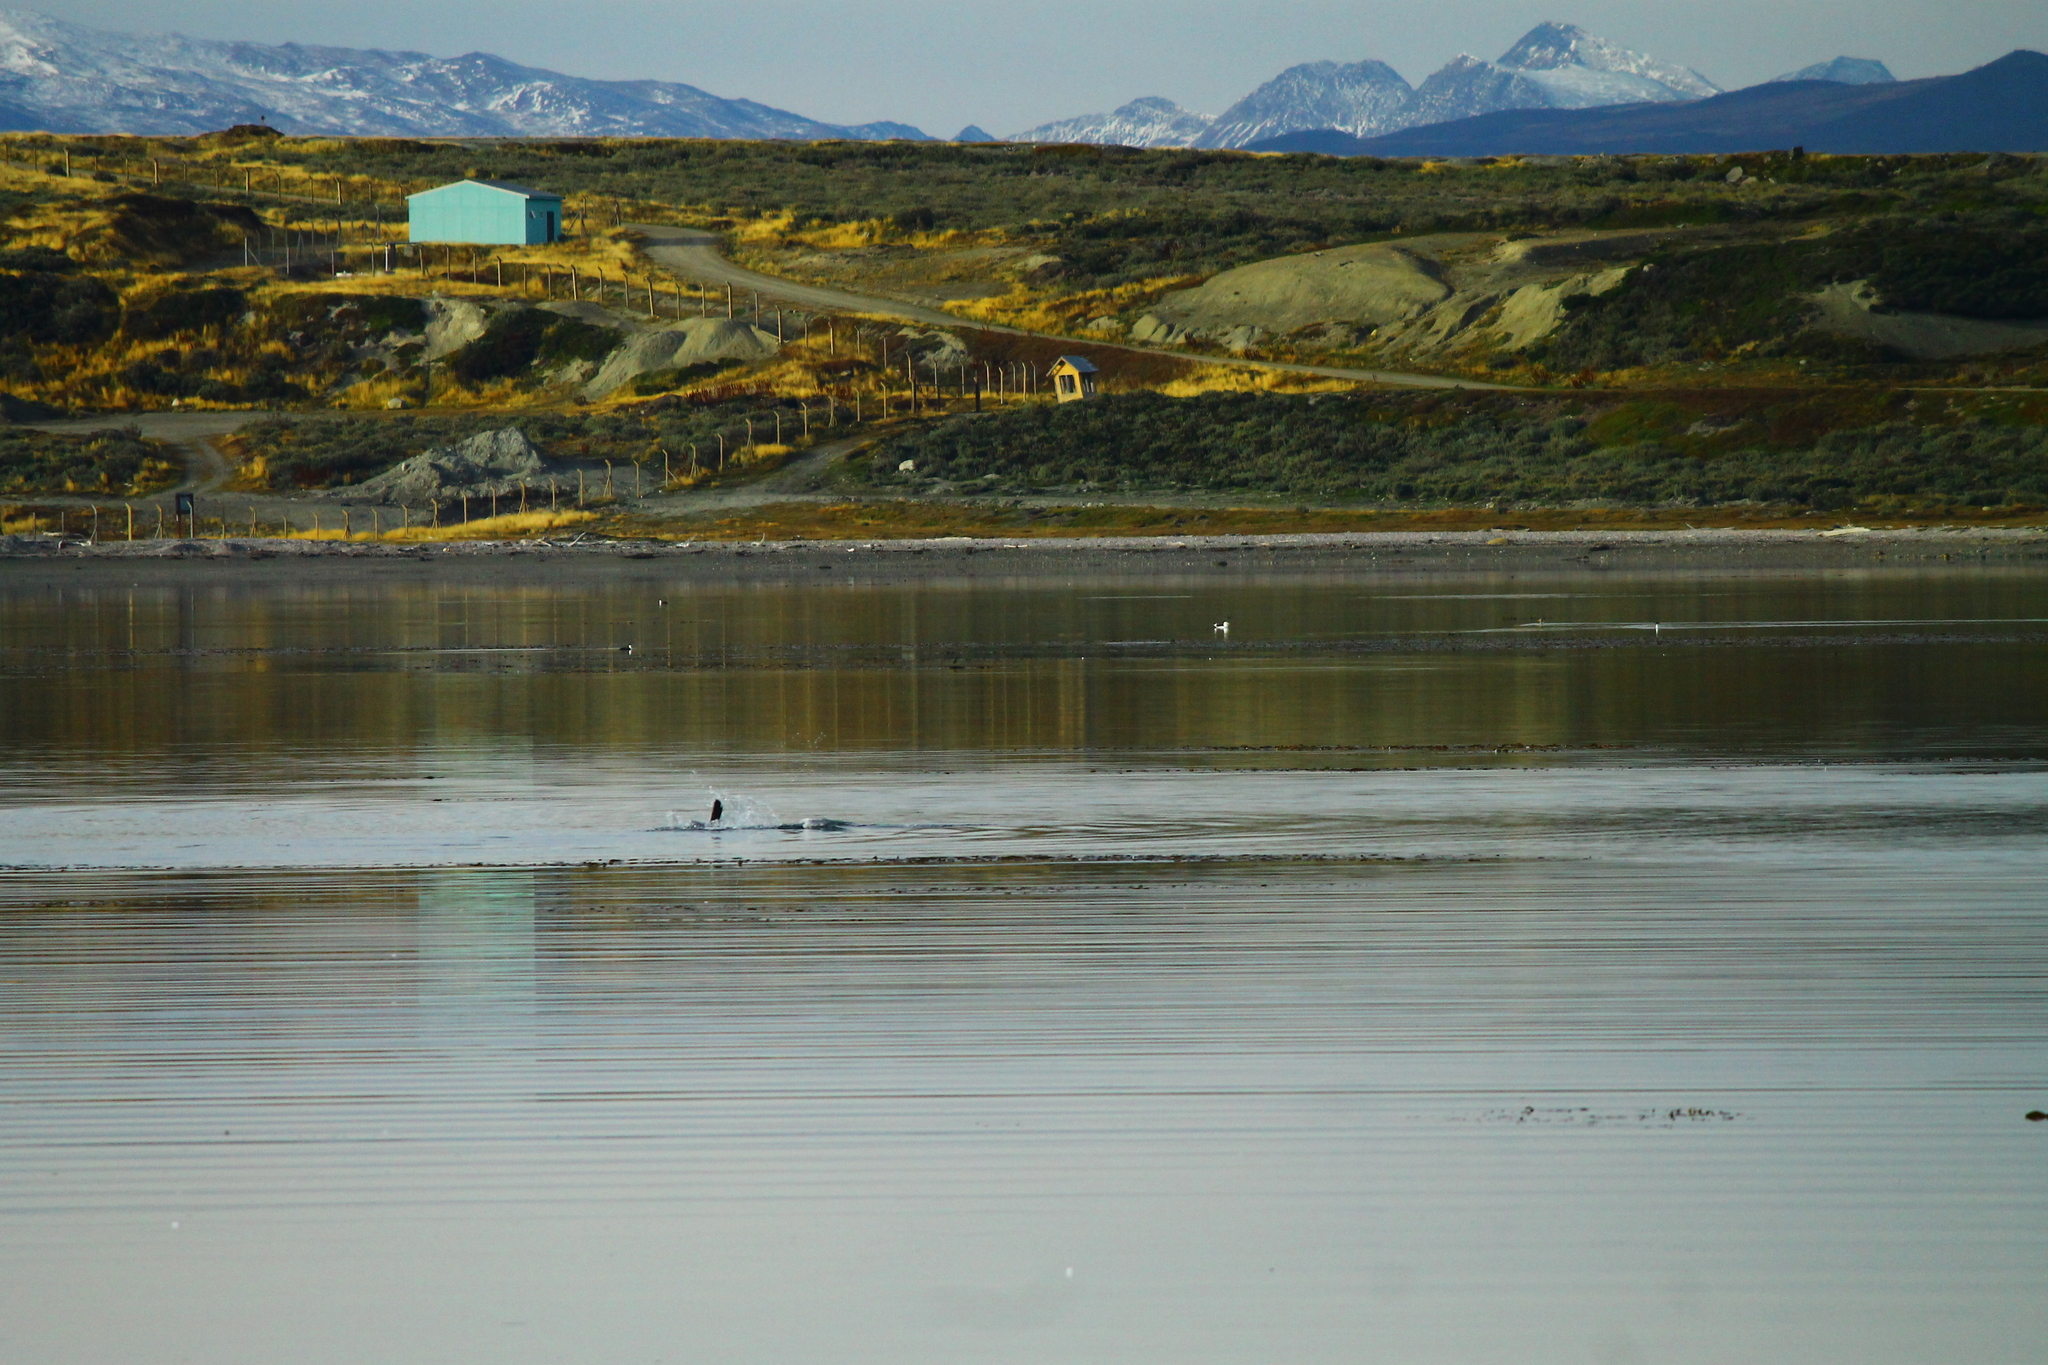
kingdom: Animalia
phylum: Chordata
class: Mammalia
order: Carnivora
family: Otariidae
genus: Otaria
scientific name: Otaria byronia
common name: South american sea lion
